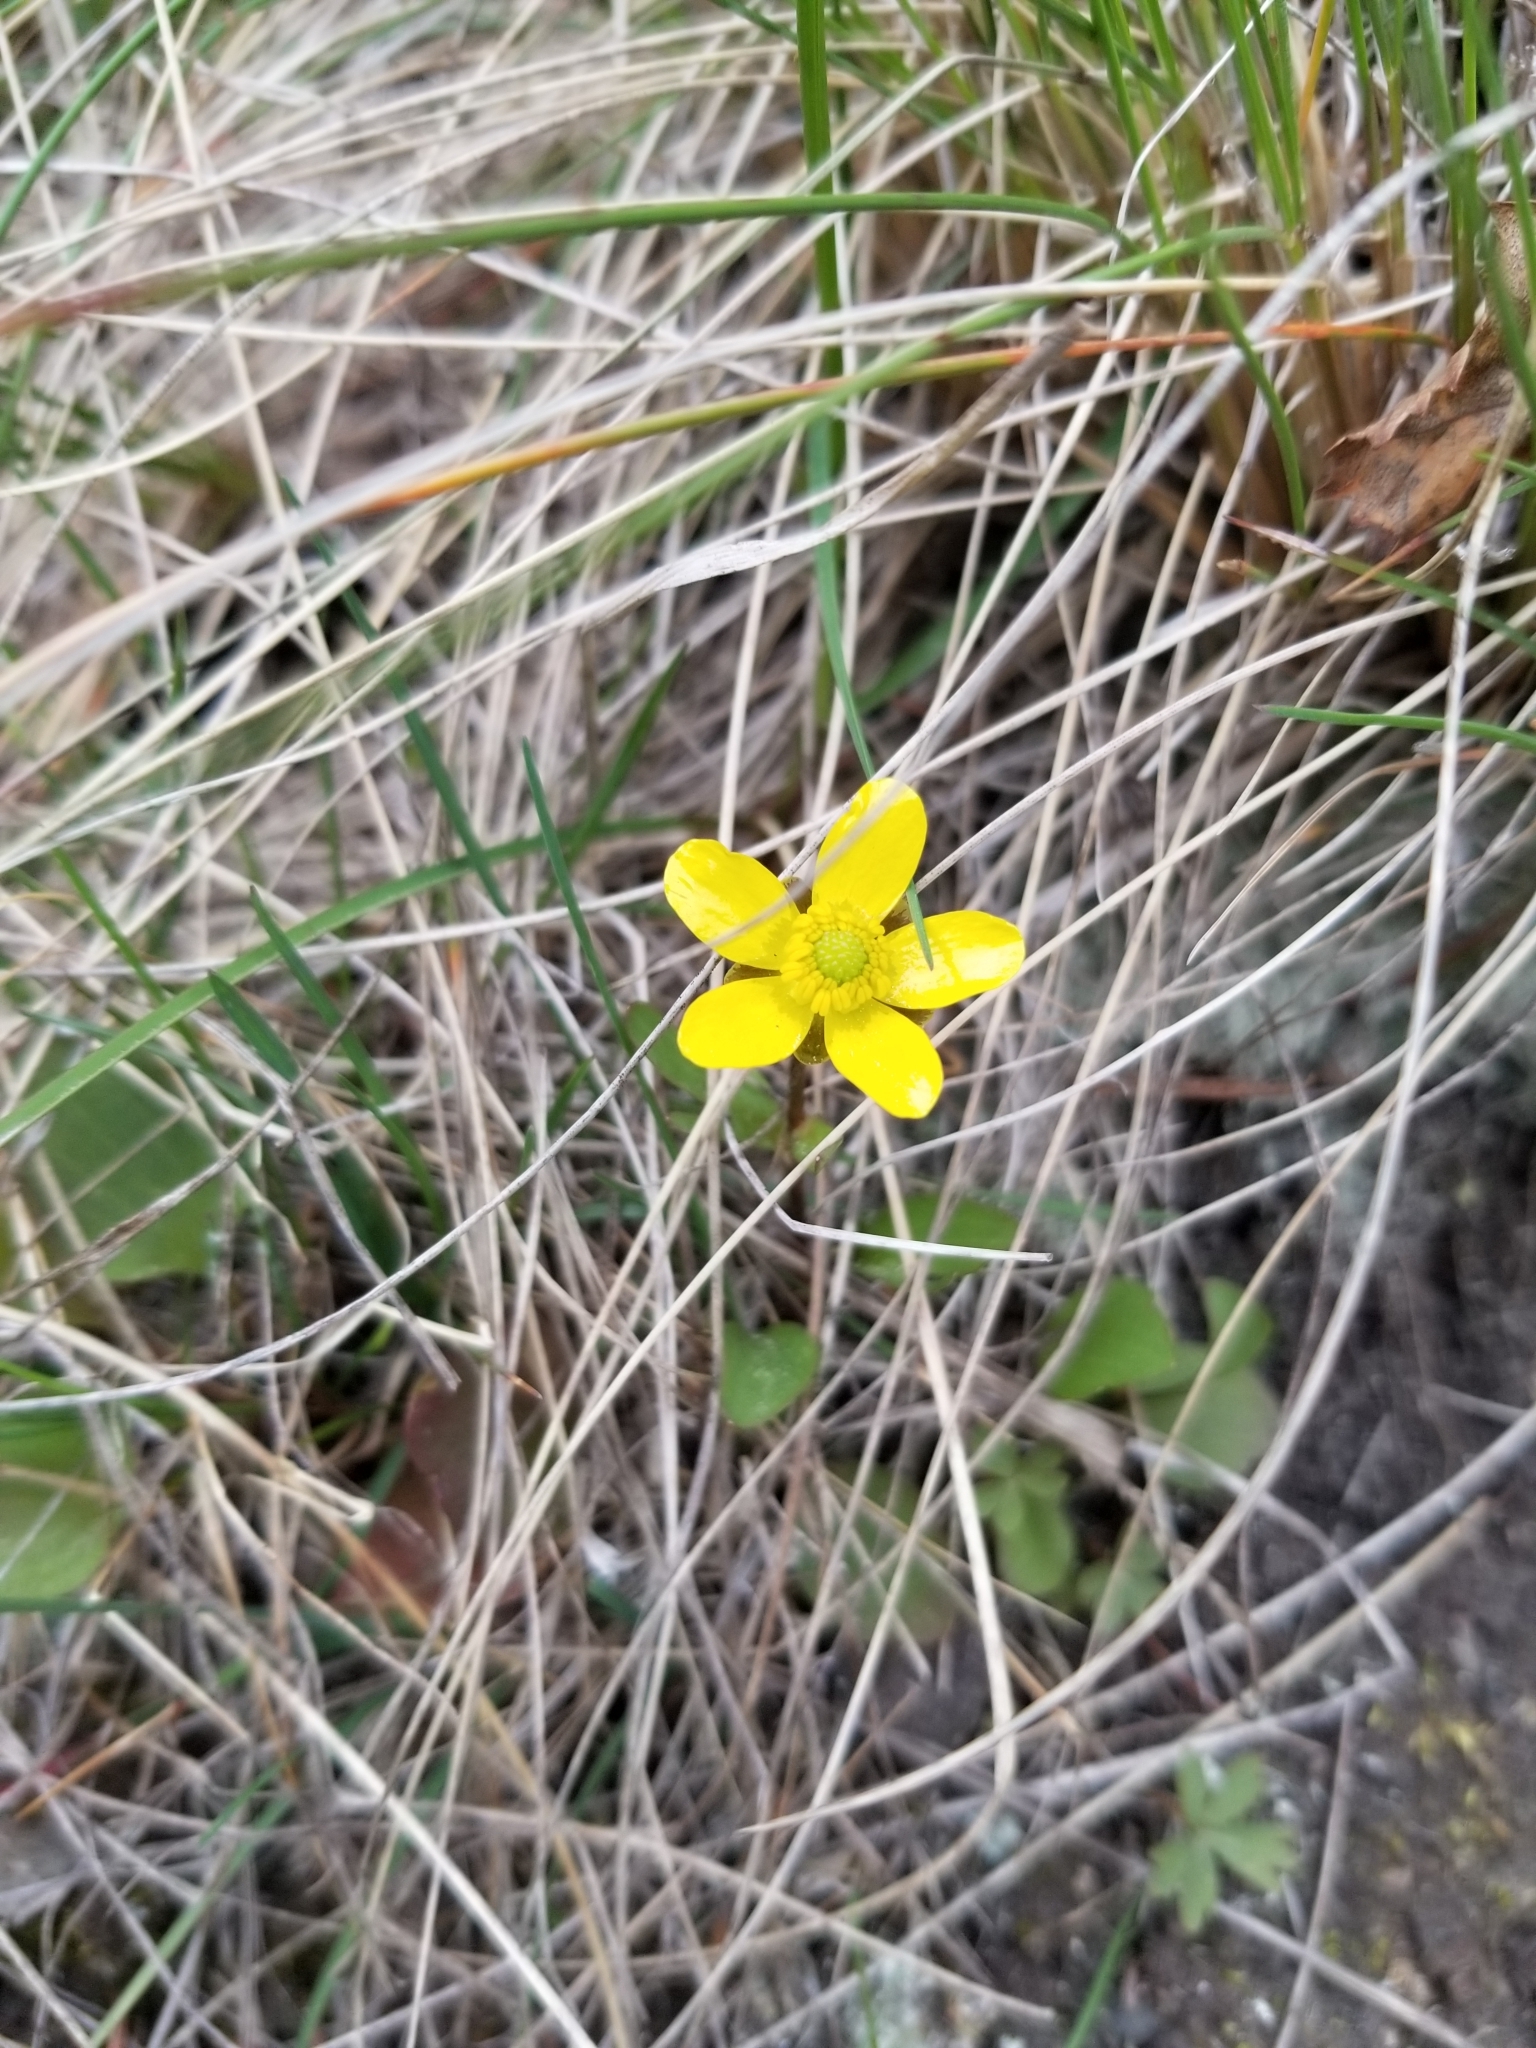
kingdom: Plantae
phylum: Tracheophyta
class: Magnoliopsida
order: Ranunculales
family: Ranunculaceae
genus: Ranunculus
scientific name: Ranunculus glaberrimus
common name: Sagebrush buttercup
